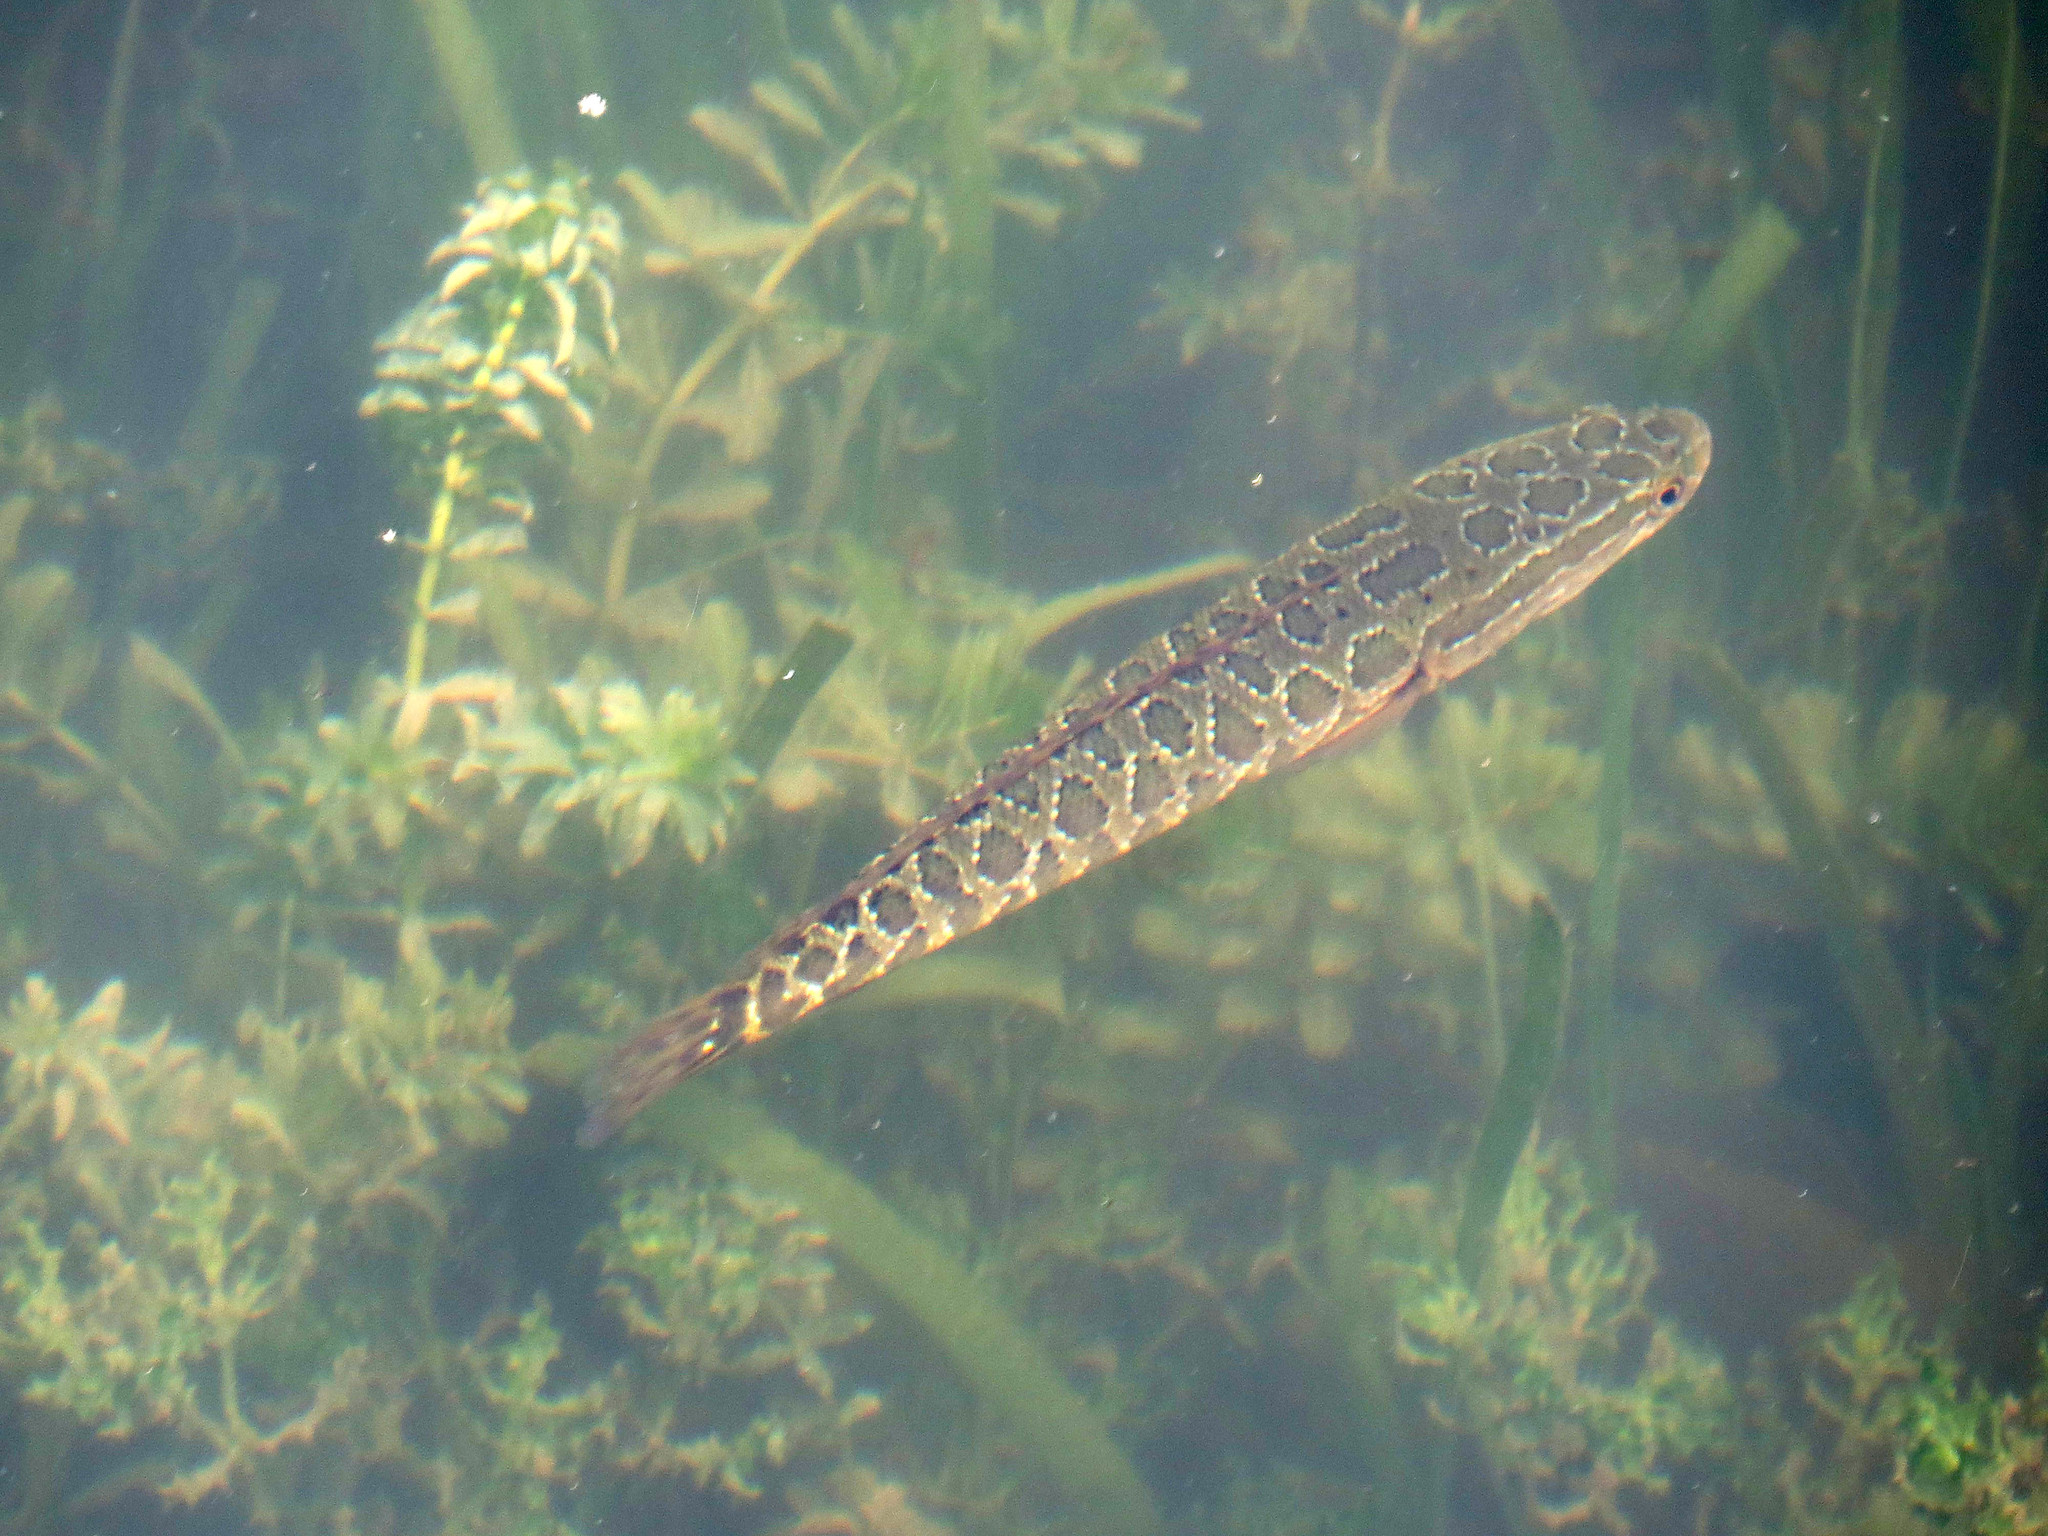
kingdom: Animalia
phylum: Chordata
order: Perciformes
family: Channidae
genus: Channa
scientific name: Channa argus
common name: Northern snakehead
